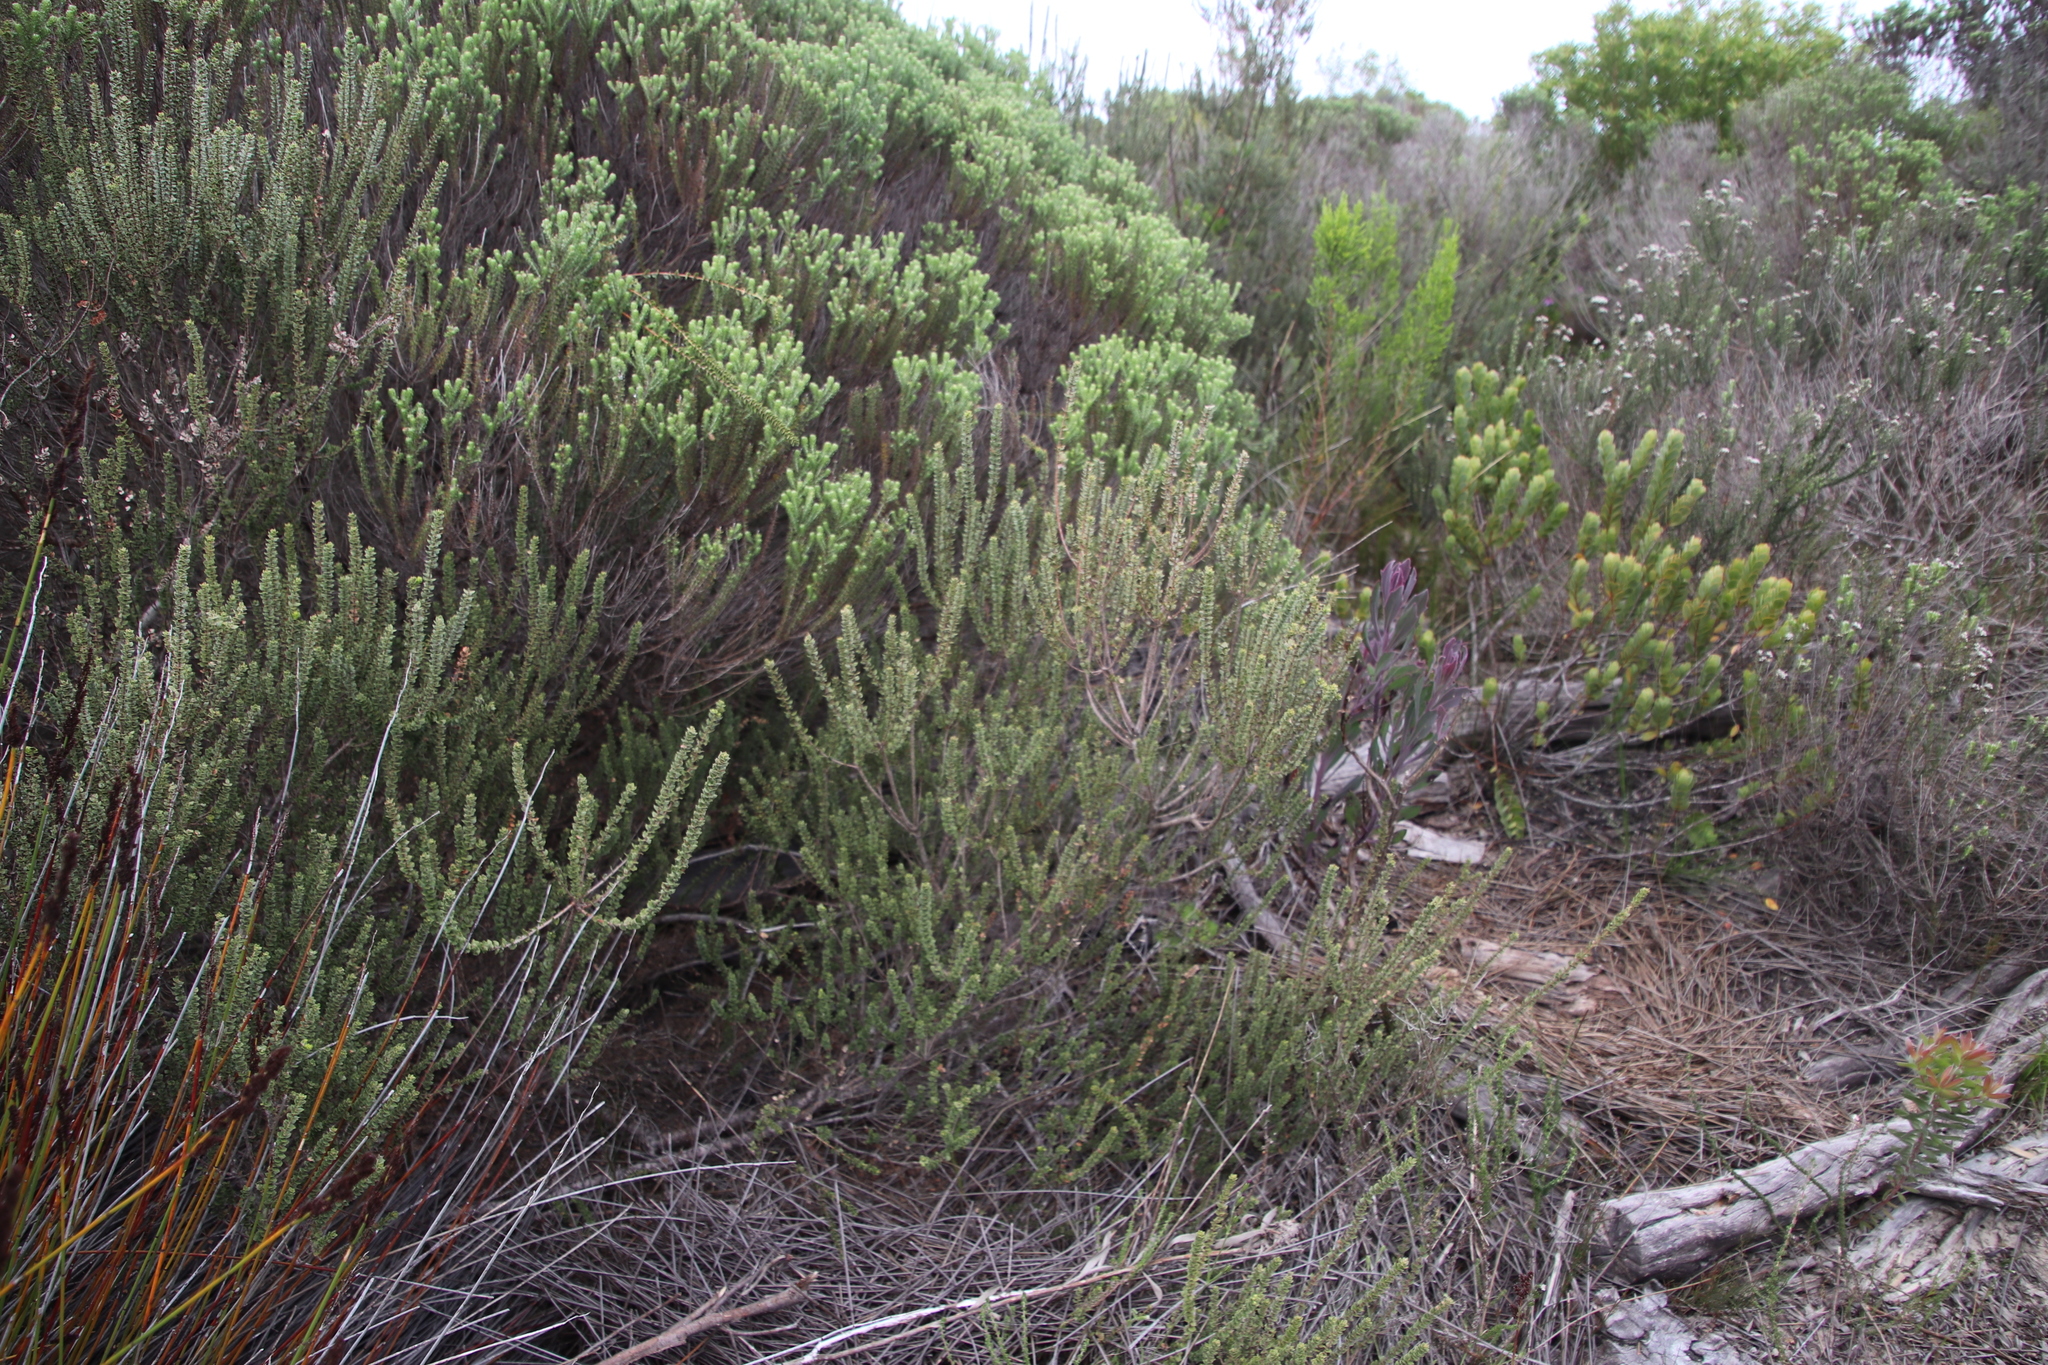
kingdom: Plantae
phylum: Tracheophyta
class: Magnoliopsida
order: Fagales
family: Myricaceae
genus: Morella
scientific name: Morella cordifolia
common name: Waxberry
